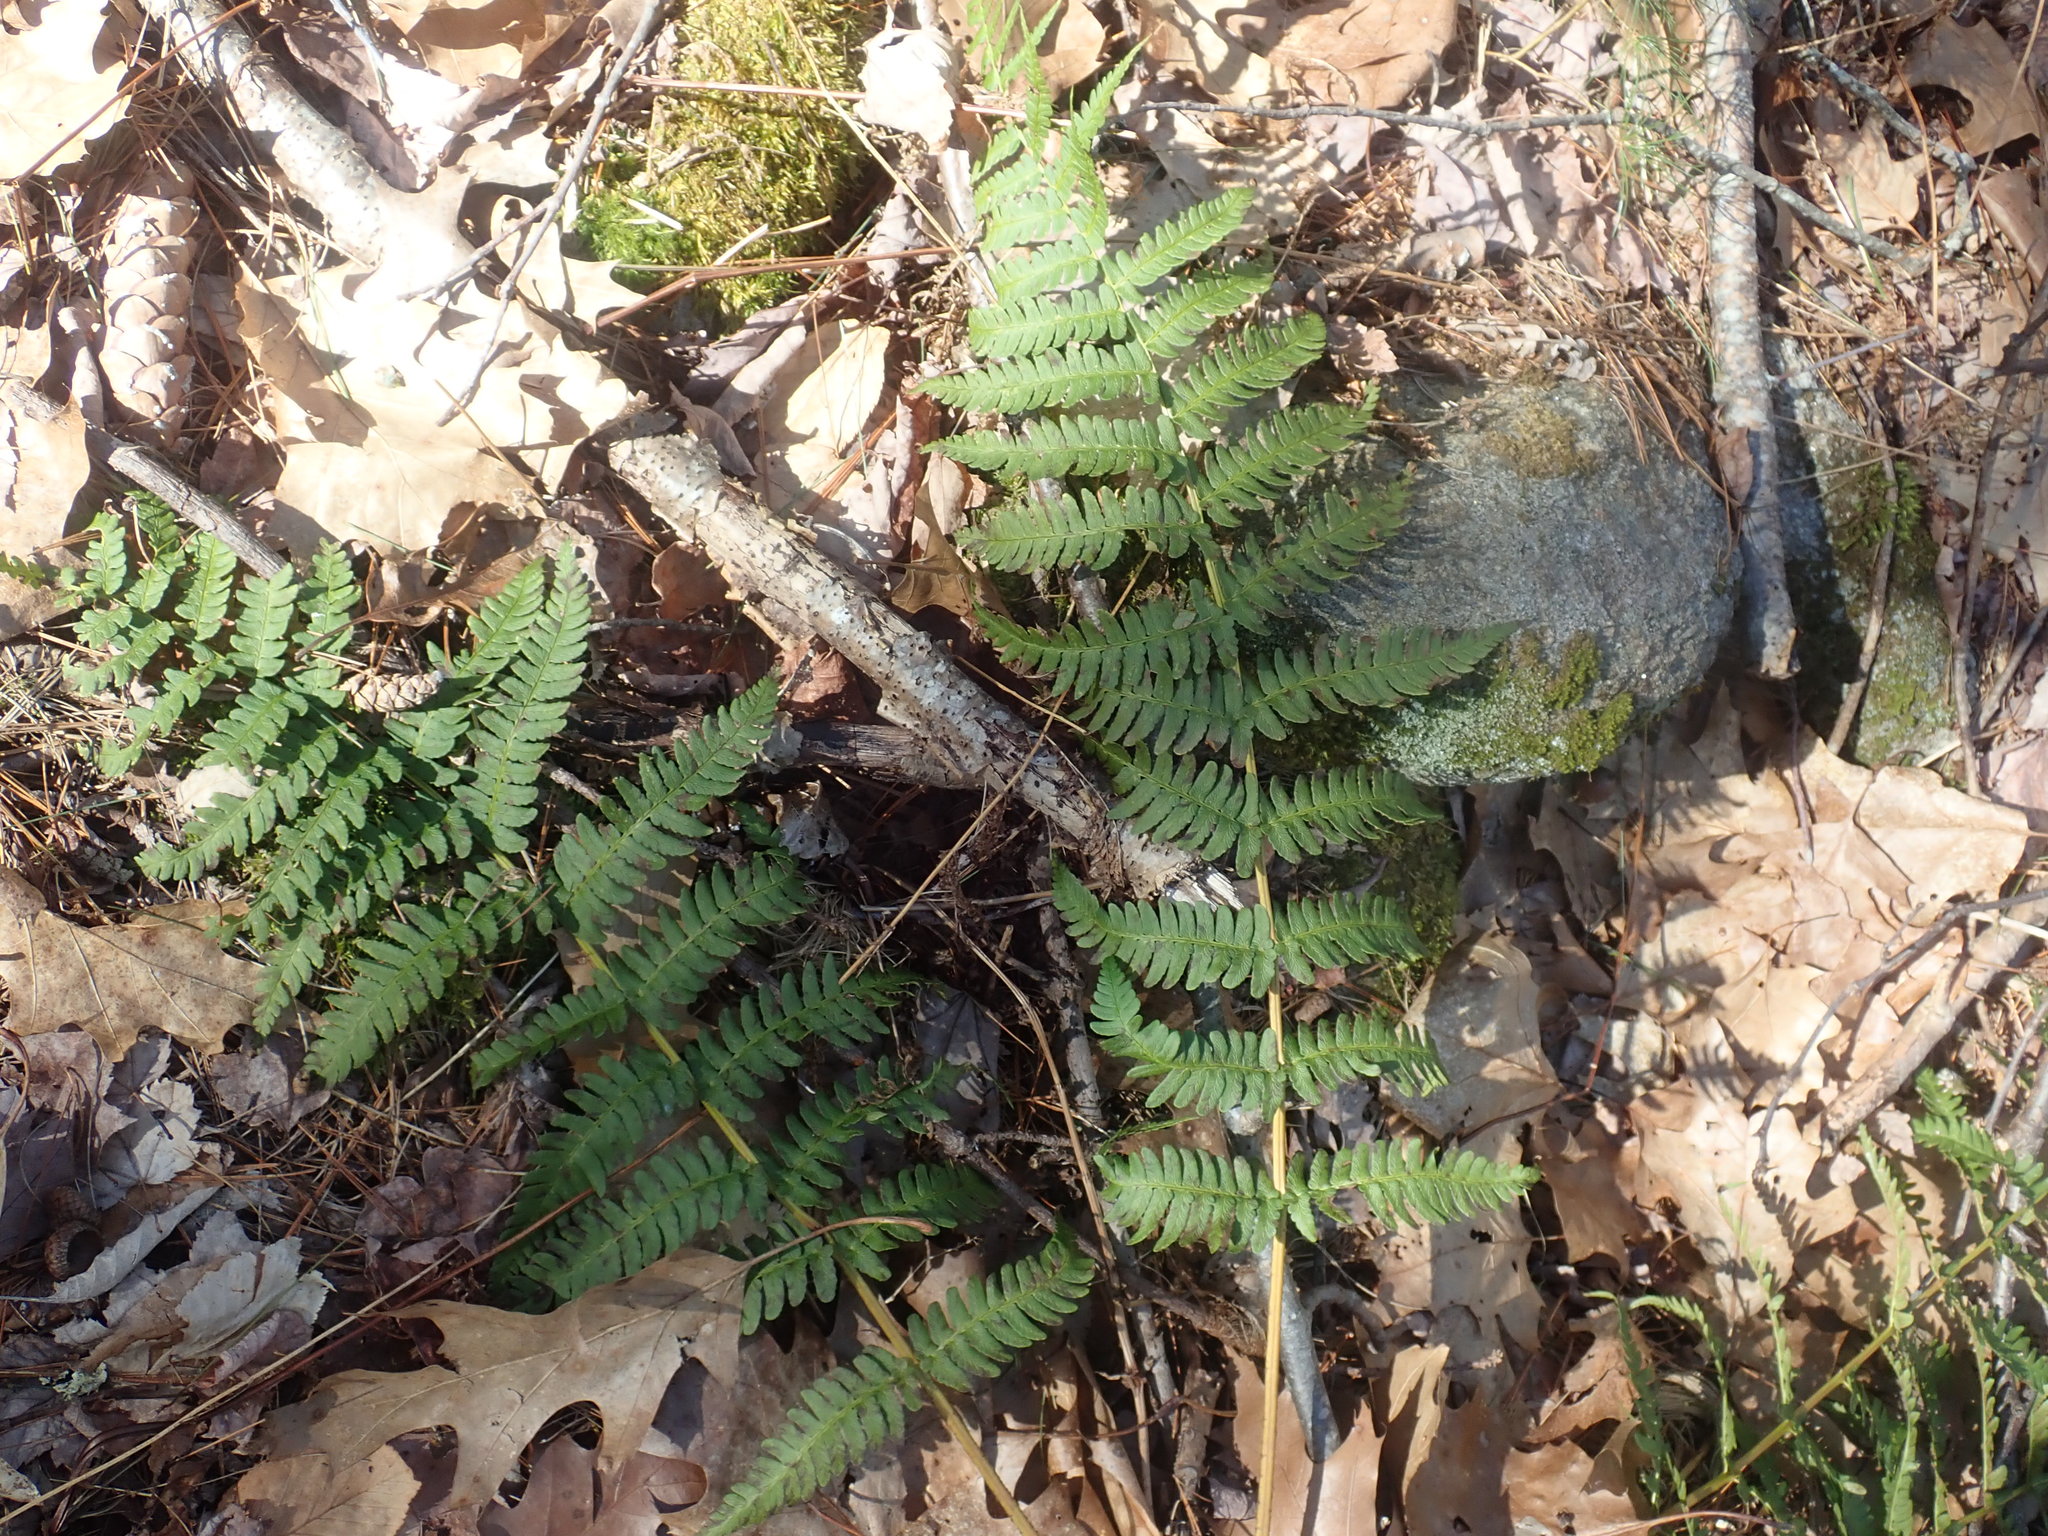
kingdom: Plantae
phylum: Tracheophyta
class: Polypodiopsida
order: Polypodiales
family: Dryopteridaceae
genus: Dryopteris
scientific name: Dryopteris marginalis
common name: Marginal wood fern
